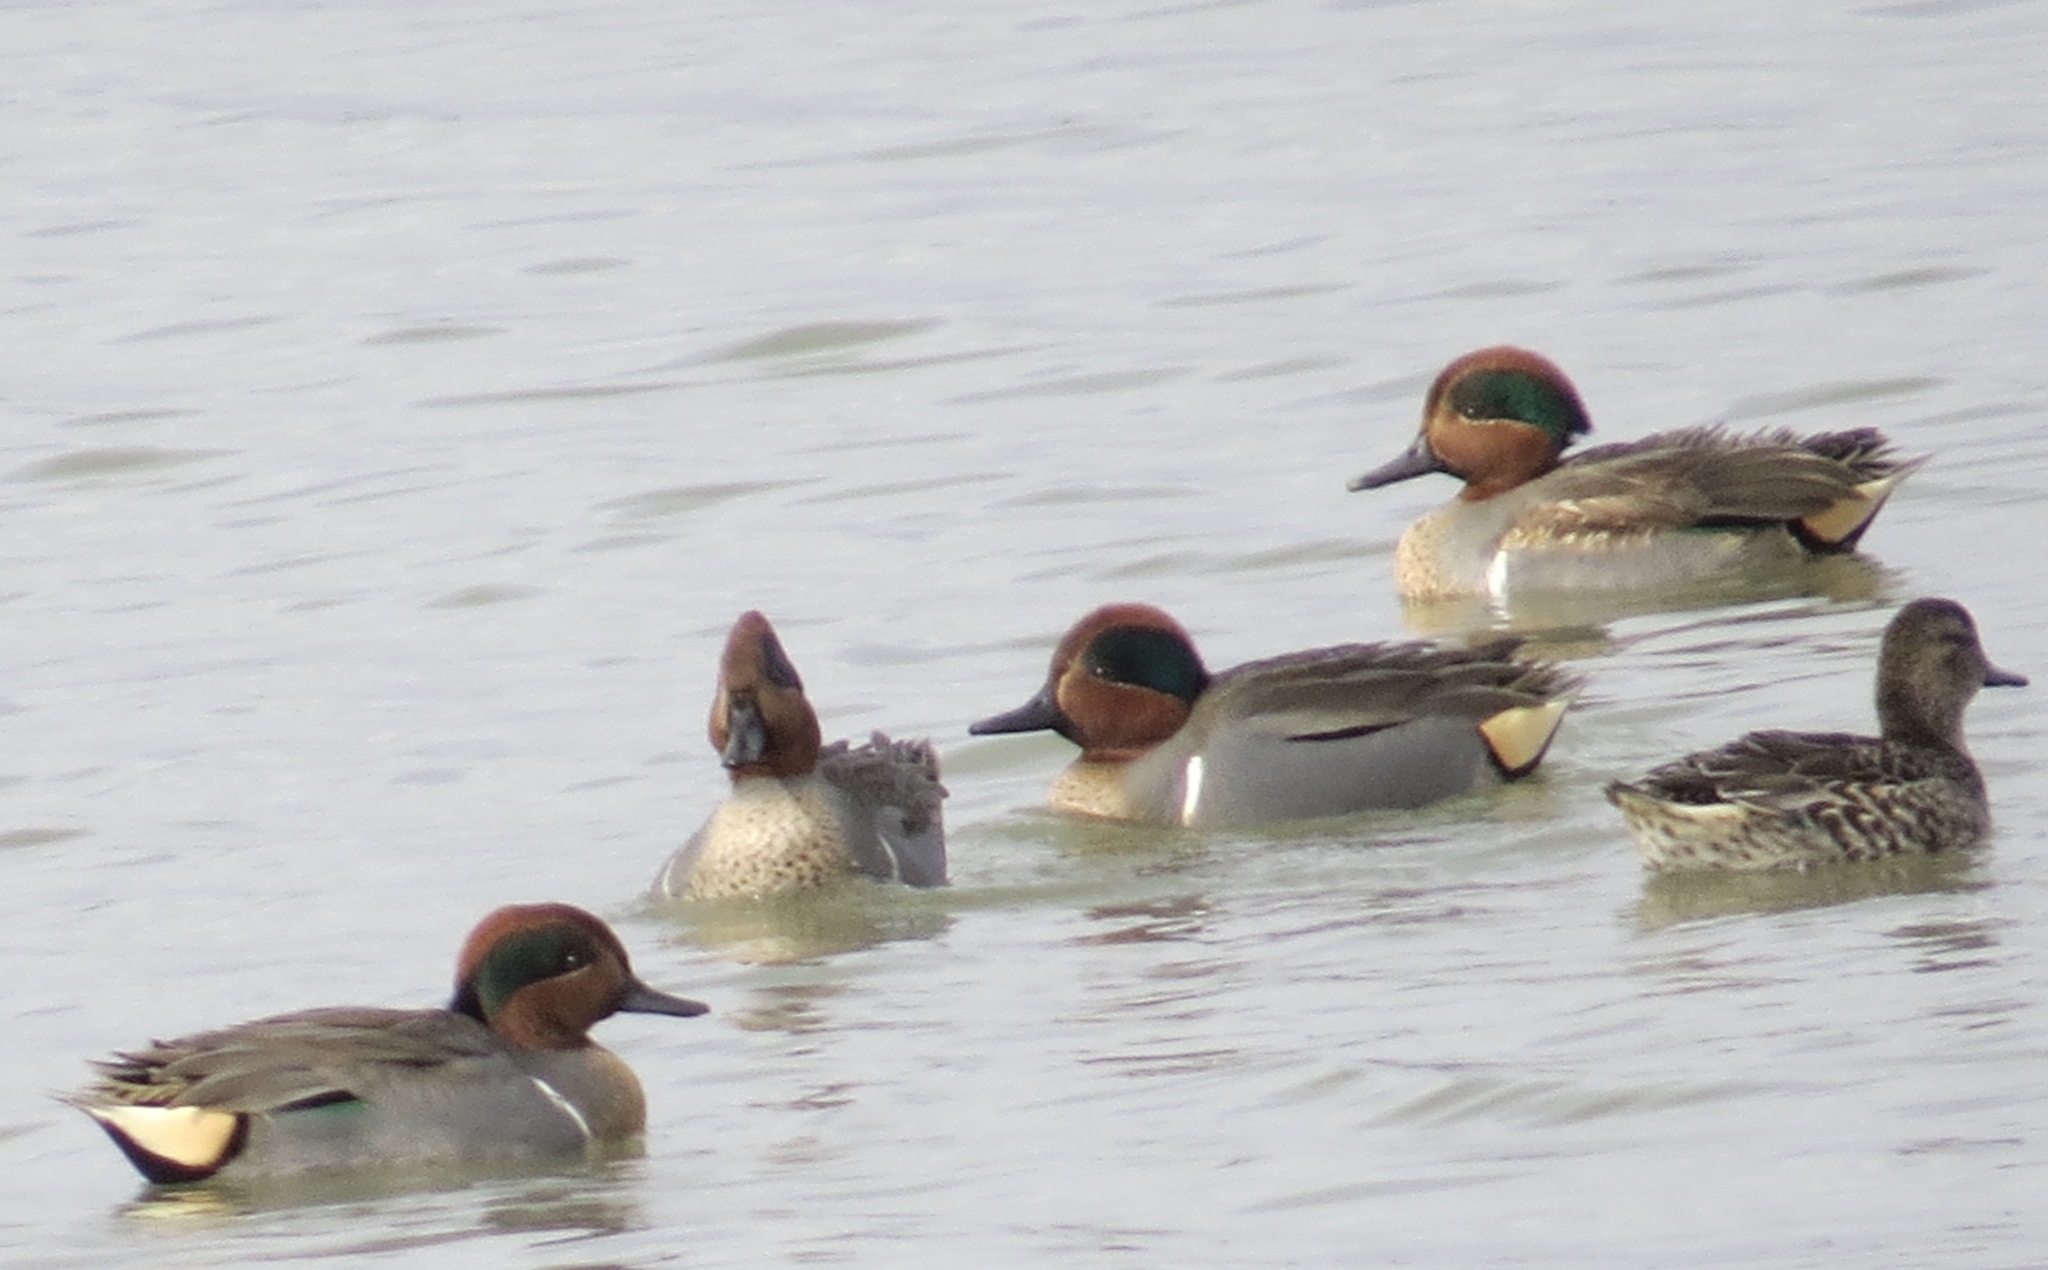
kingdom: Animalia
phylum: Chordata
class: Aves
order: Anseriformes
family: Anatidae
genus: Anas
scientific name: Anas crecca
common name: Eurasian teal
